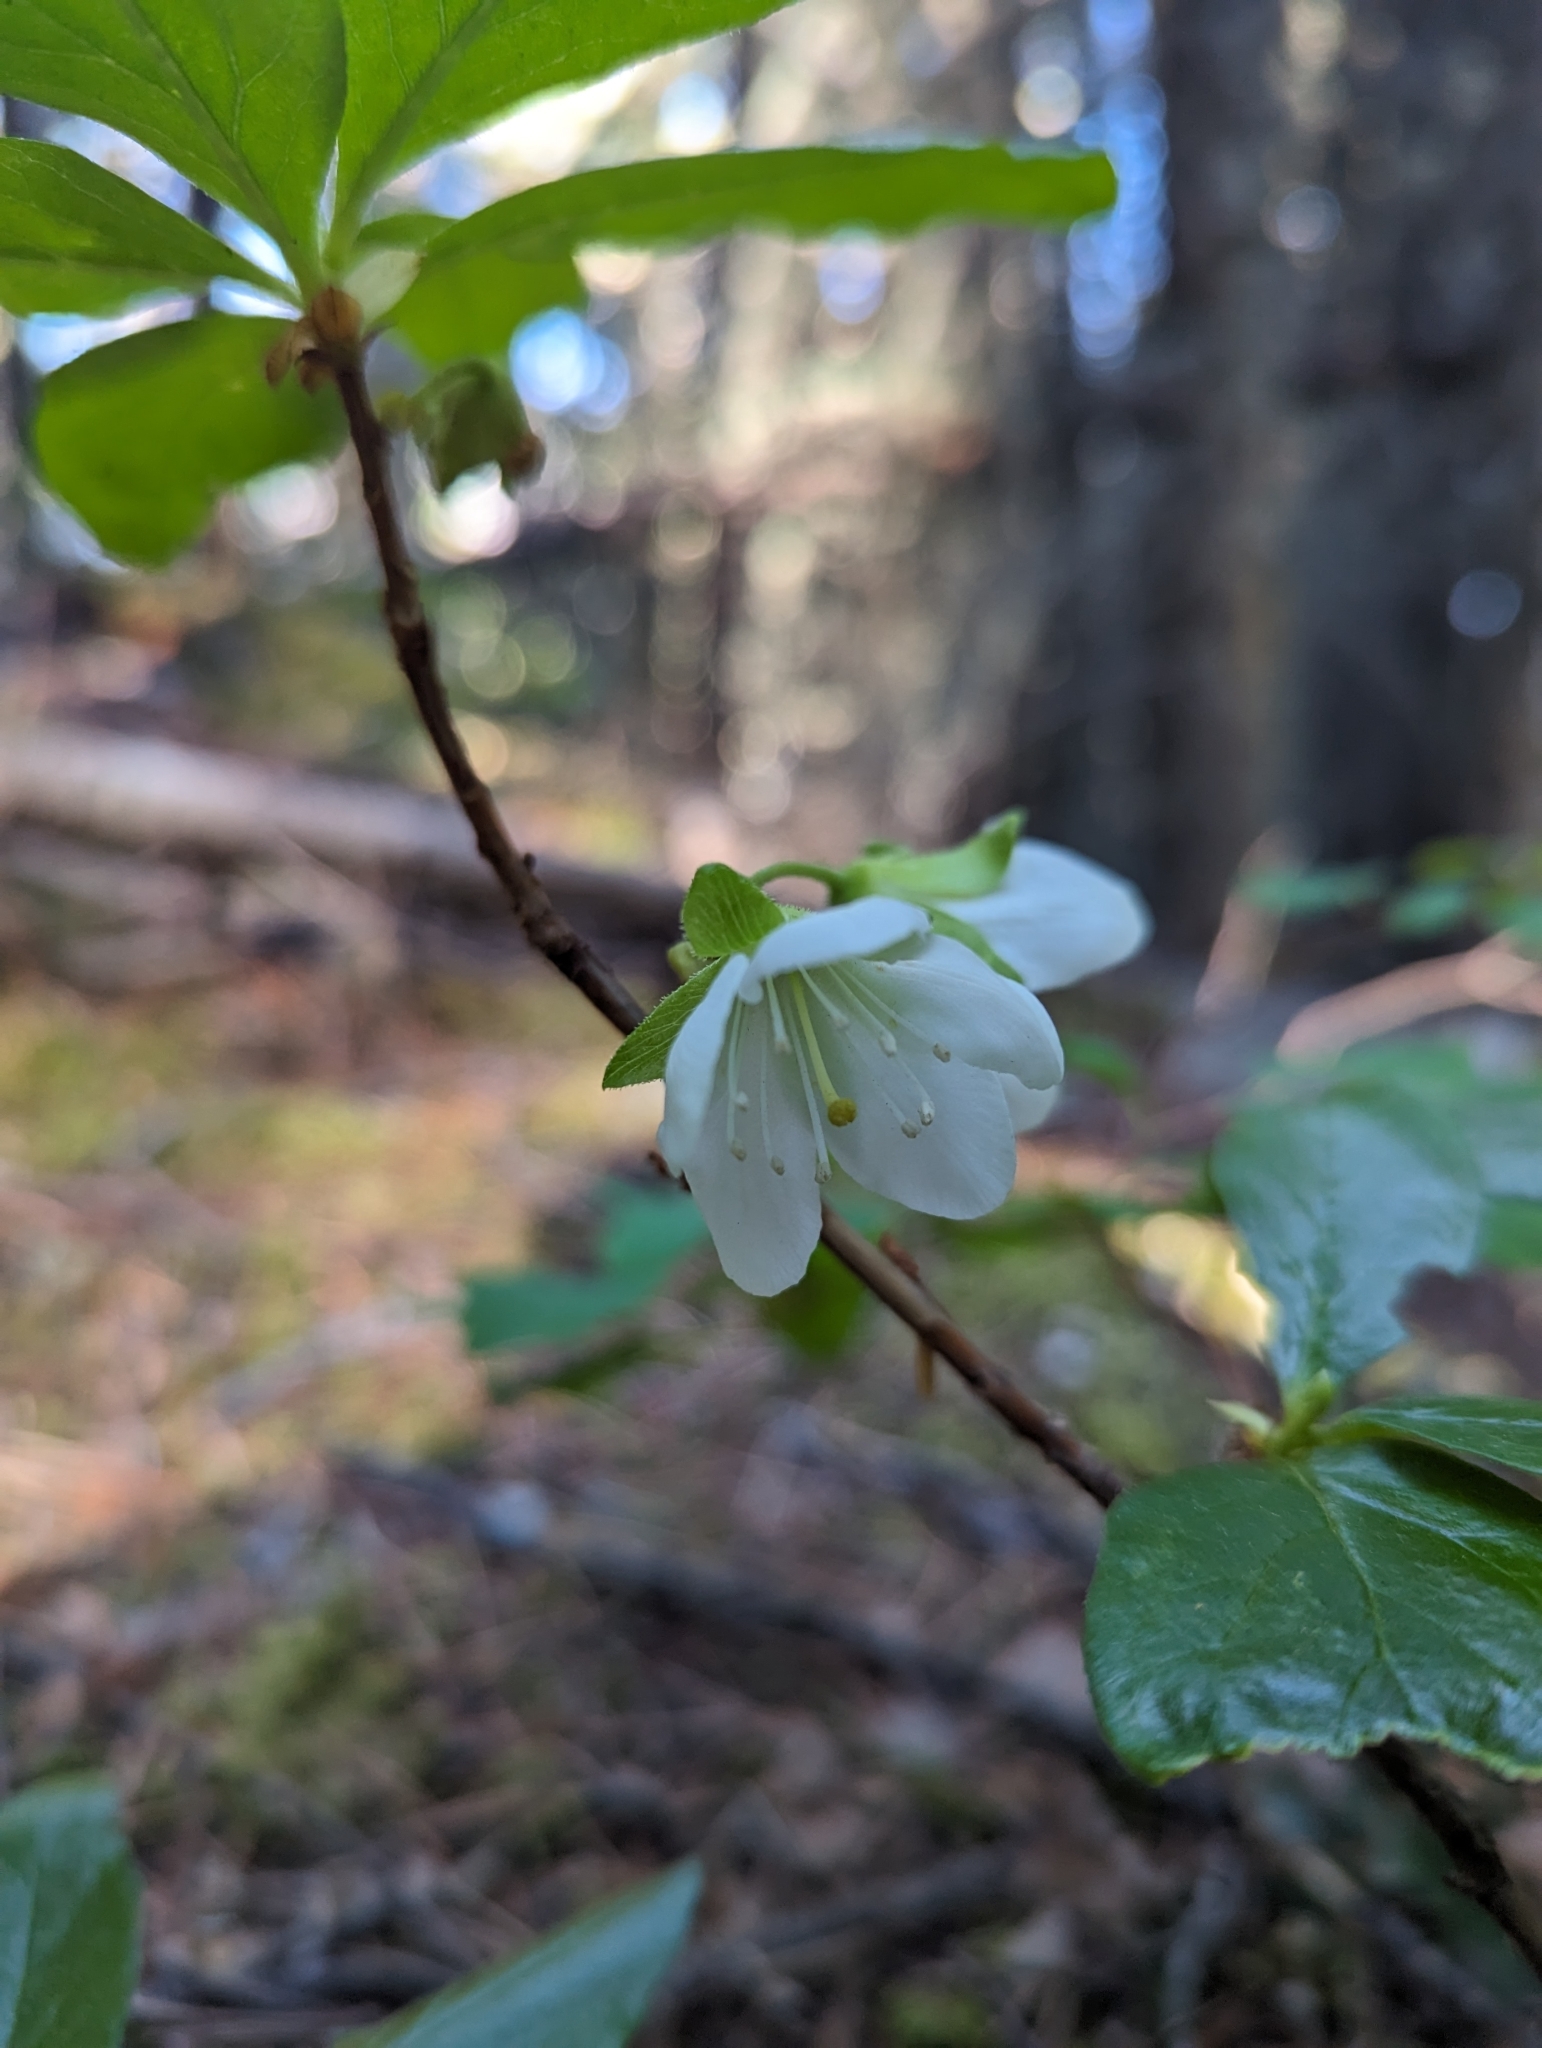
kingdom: Plantae
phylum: Tracheophyta
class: Magnoliopsida
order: Ericales
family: Ericaceae
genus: Rhododendron
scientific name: Rhododendron albiflorum
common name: White rhododendron
